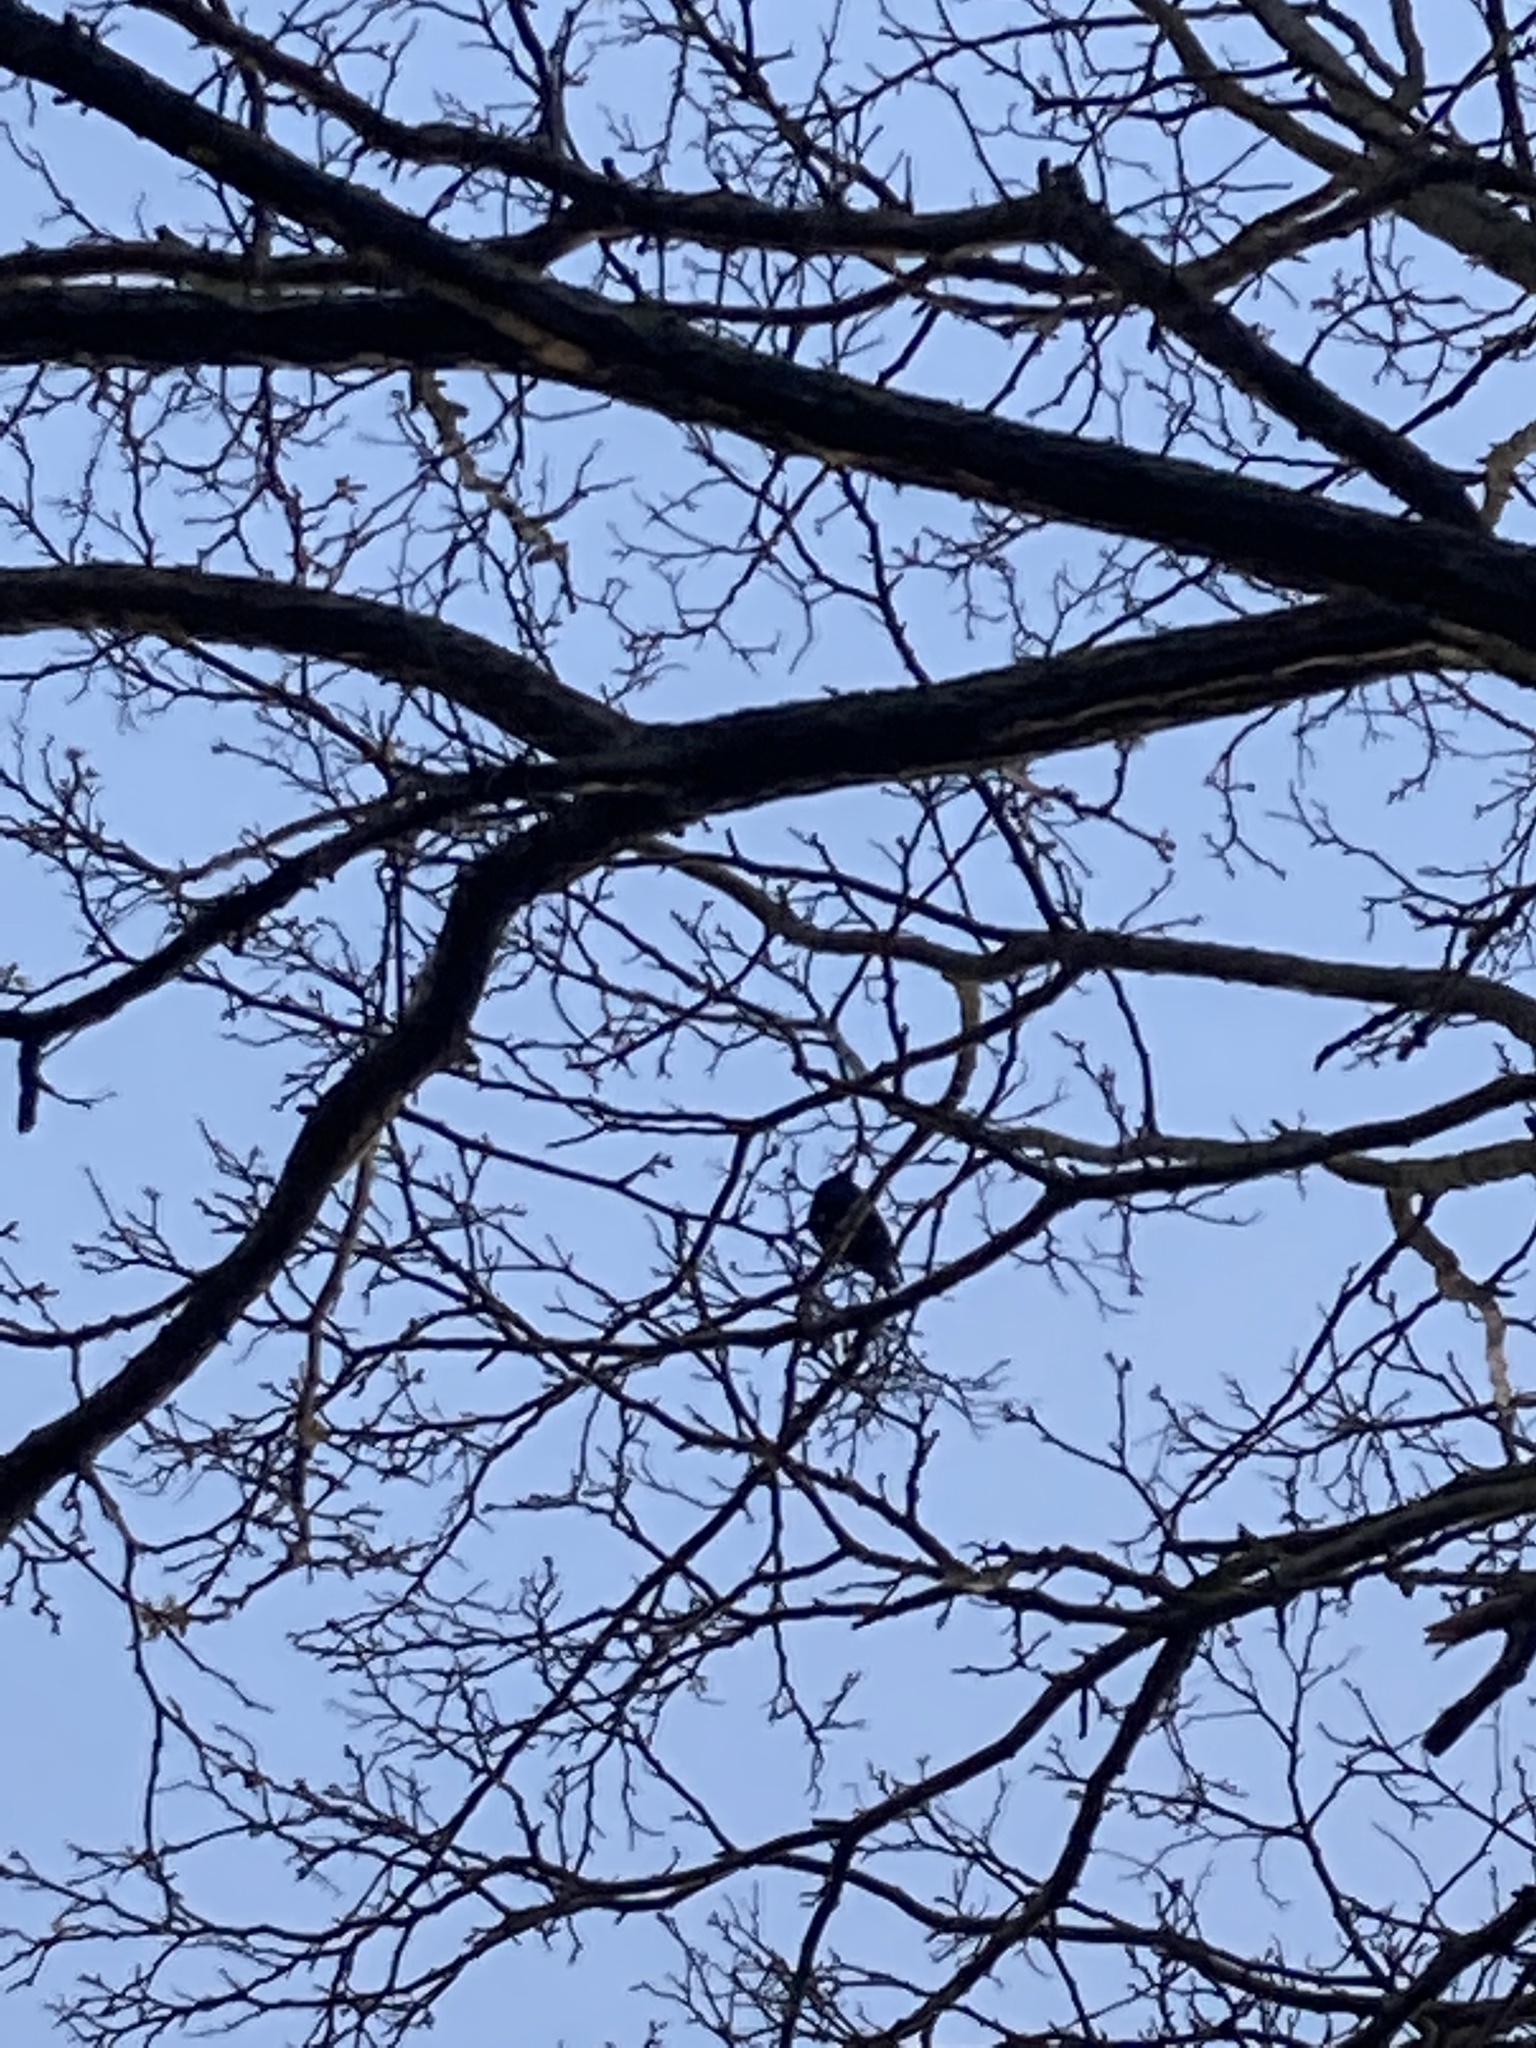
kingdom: Animalia
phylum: Chordata
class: Aves
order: Passeriformes
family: Sturnidae
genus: Sturnus
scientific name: Sturnus vulgaris
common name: Common starling
